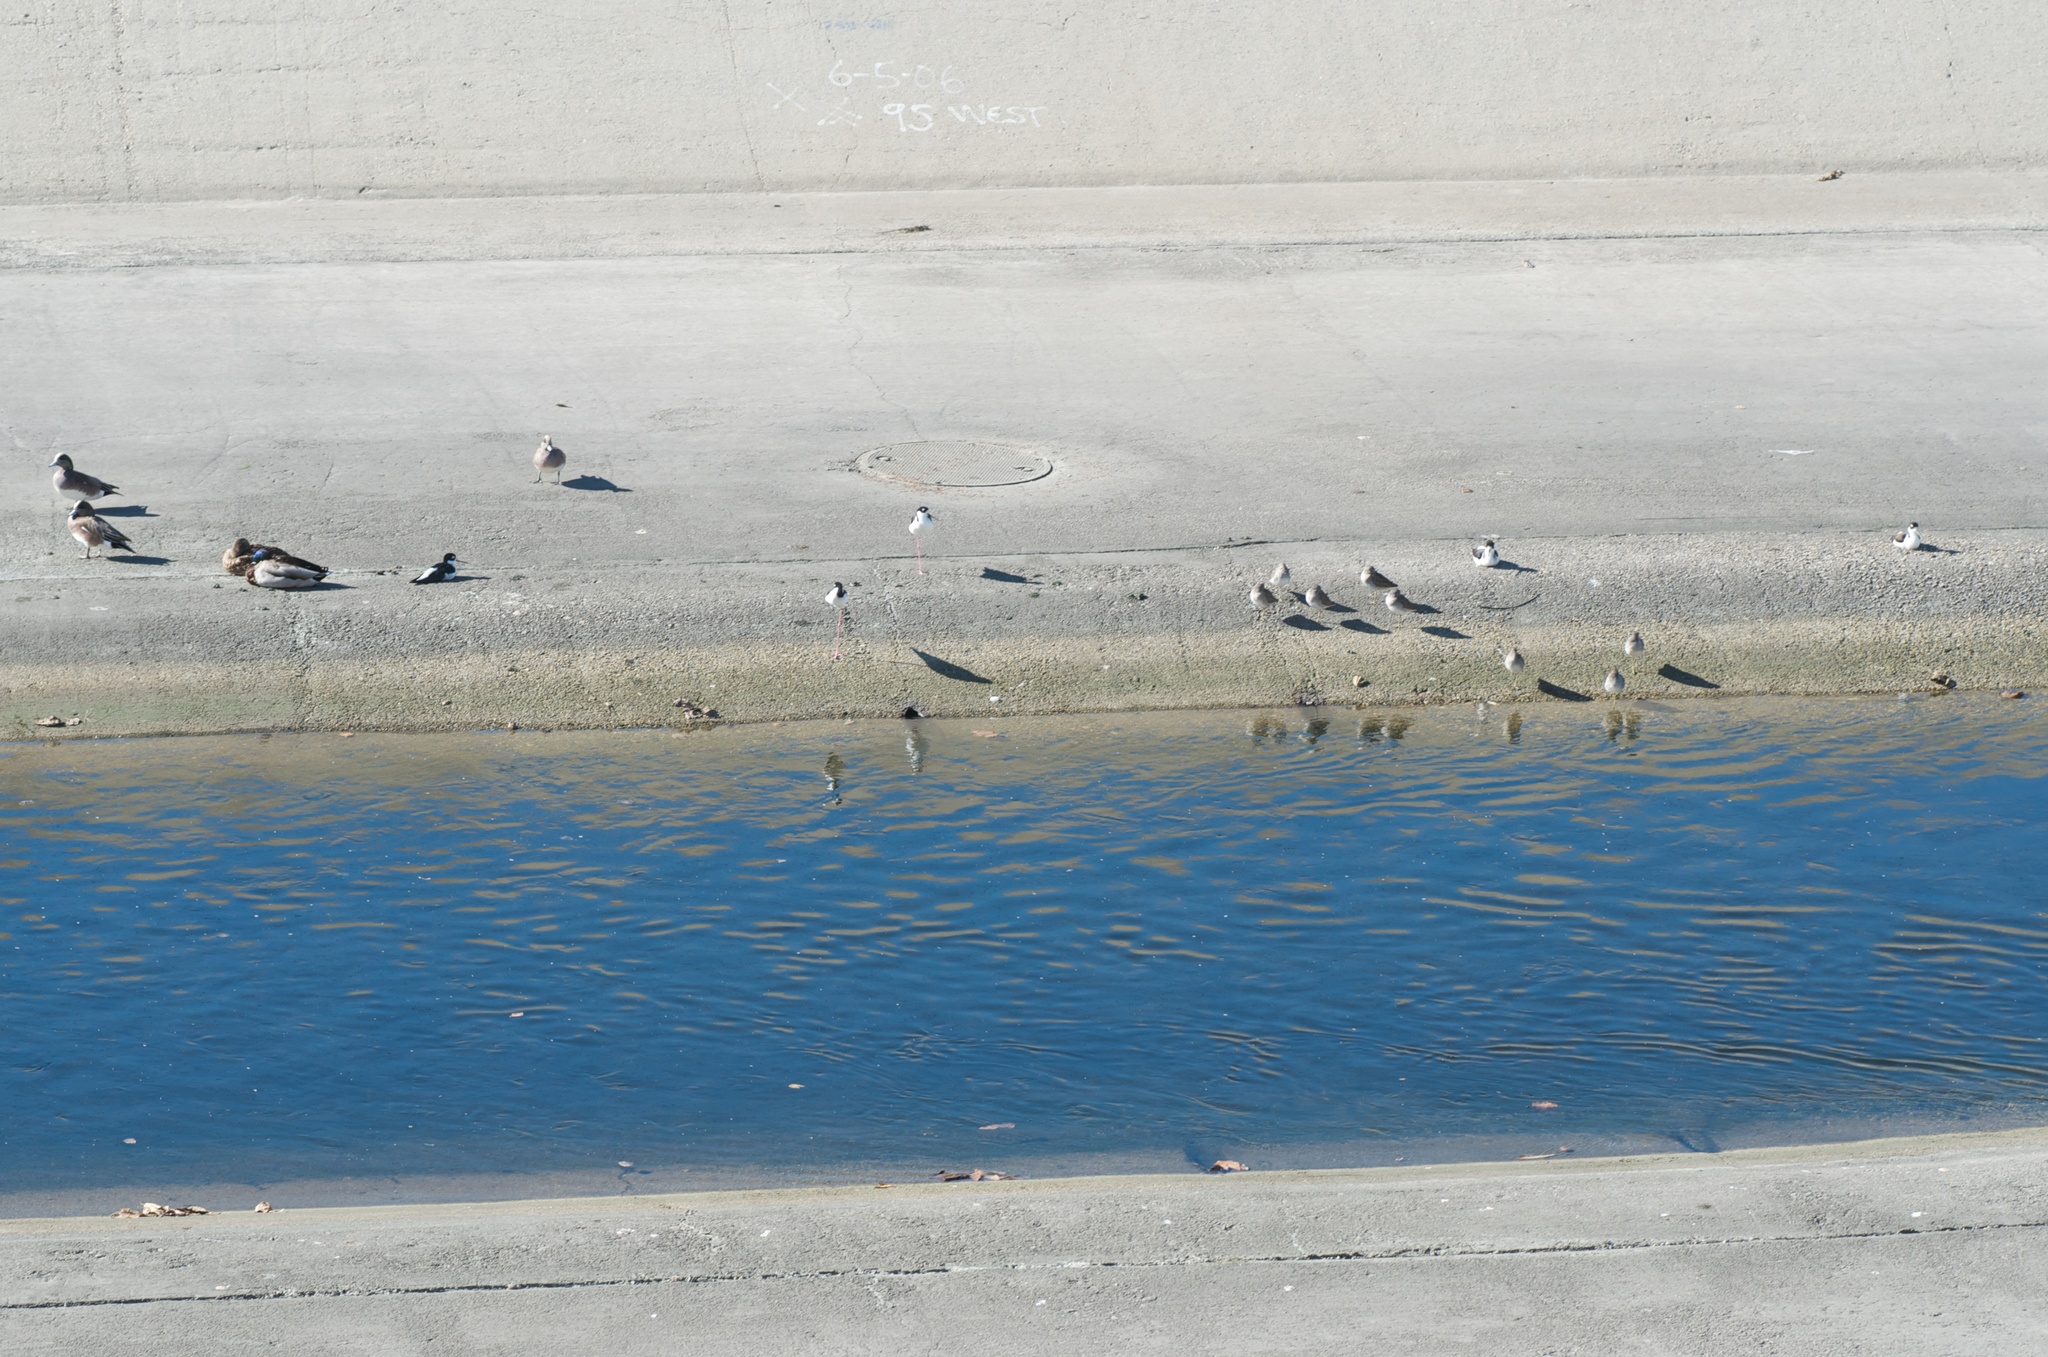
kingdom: Animalia
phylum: Chordata
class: Aves
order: Charadriiformes
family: Recurvirostridae
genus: Himantopus
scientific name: Himantopus mexicanus
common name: Black-necked stilt
